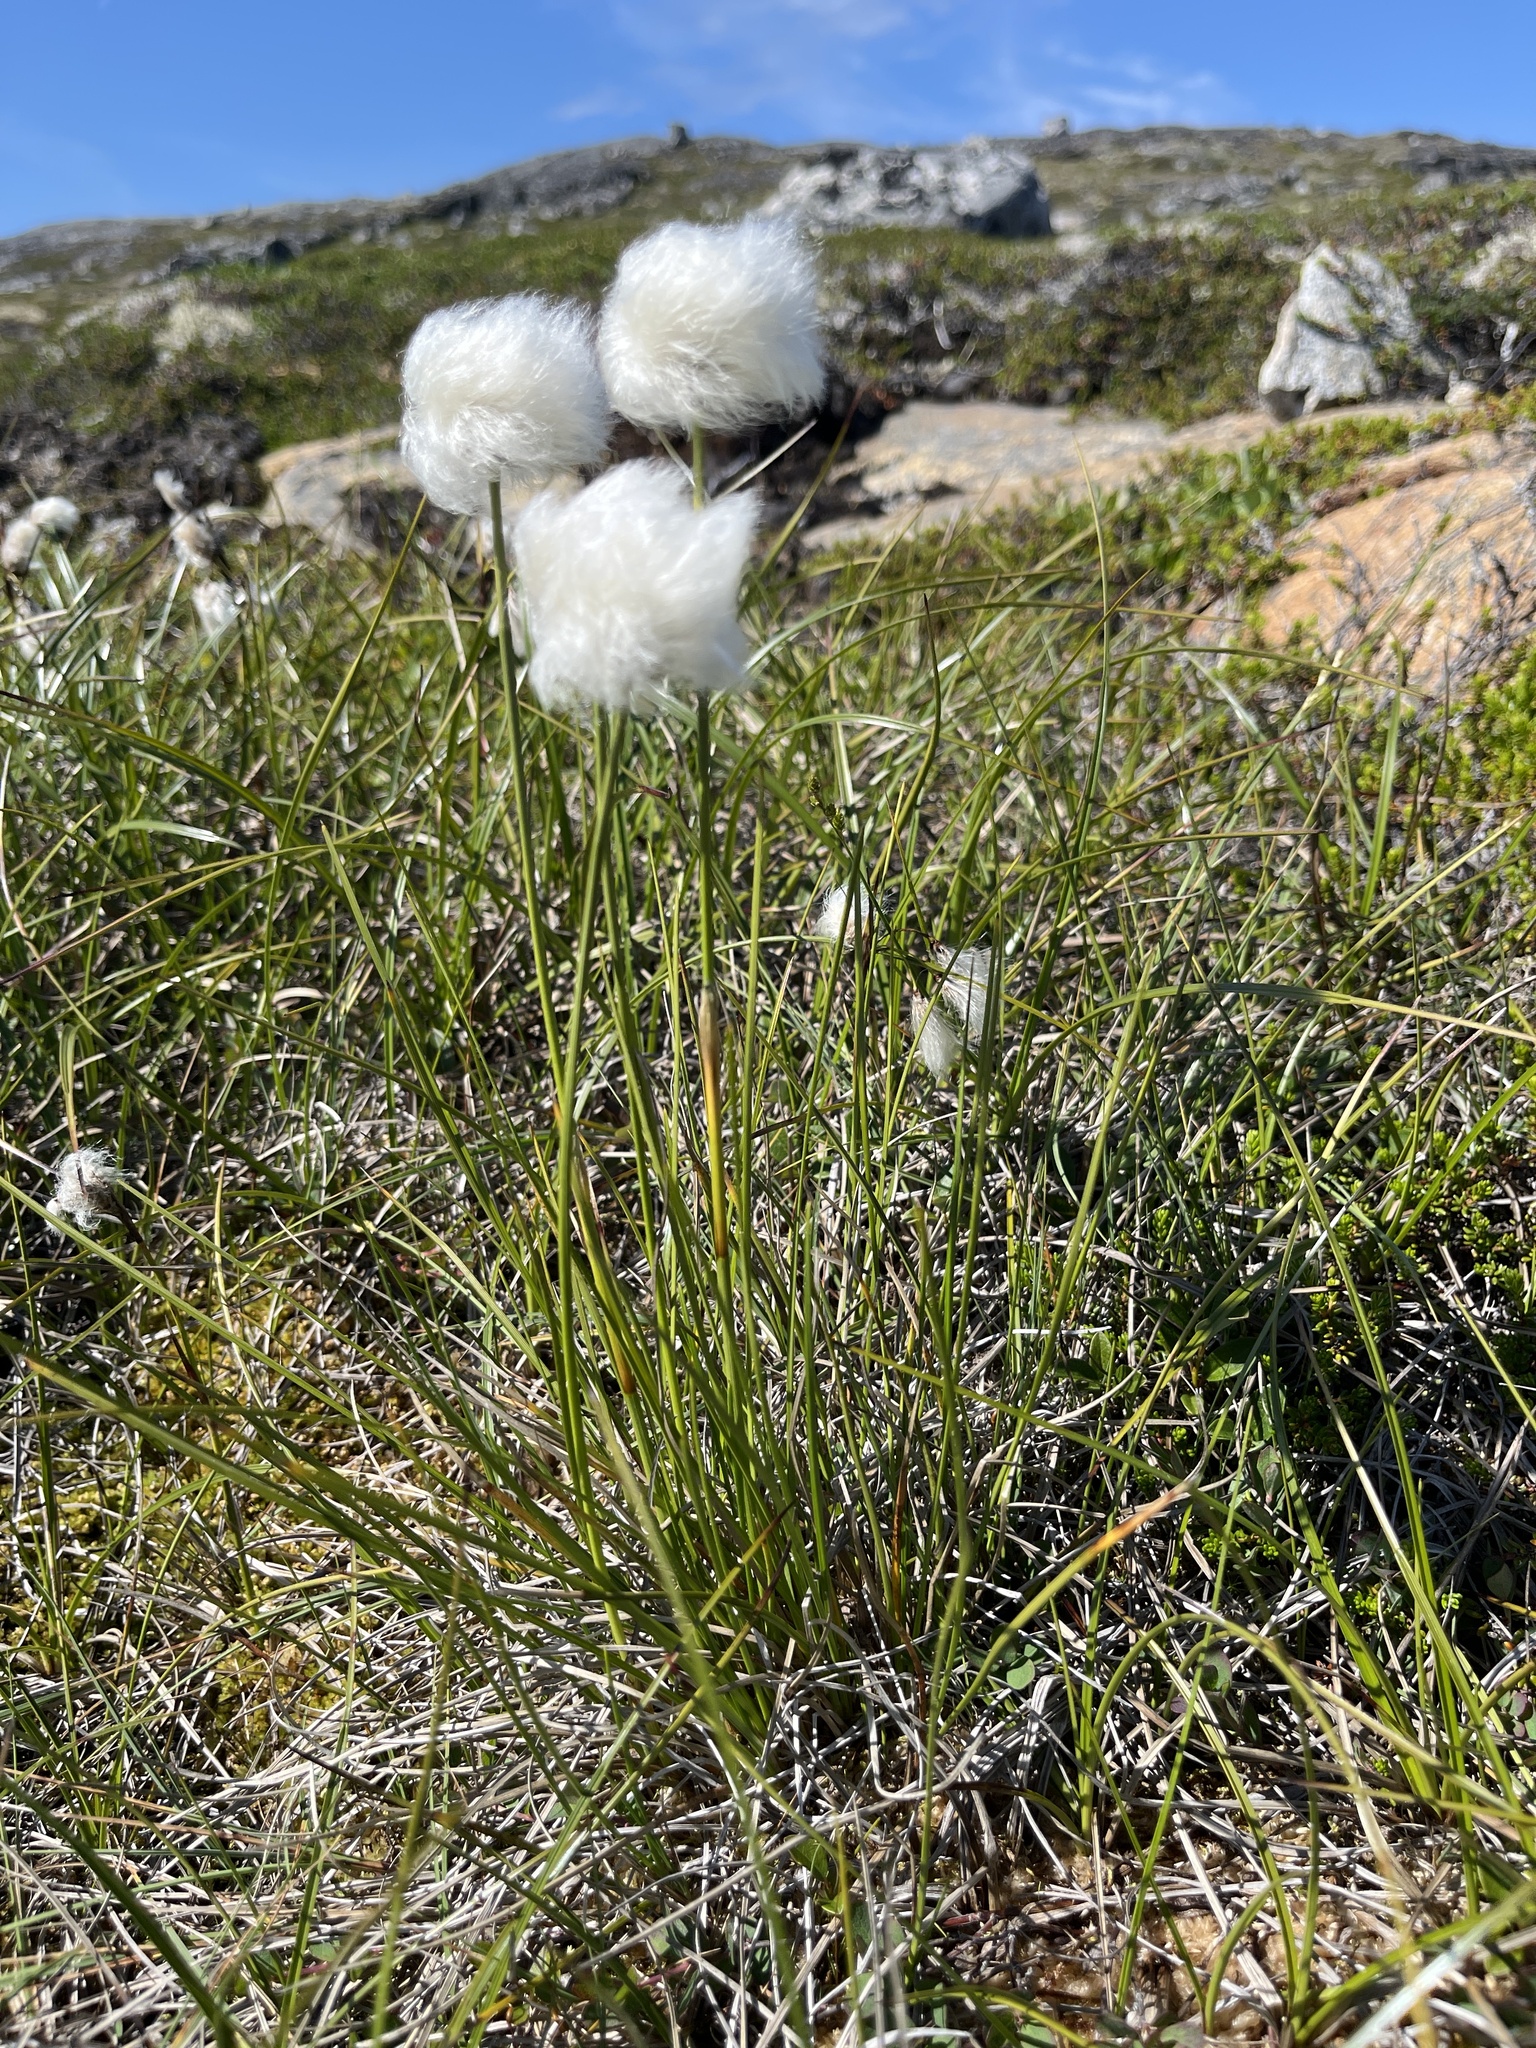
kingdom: Plantae
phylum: Tracheophyta
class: Liliopsida
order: Poales
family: Cyperaceae
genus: Eriophorum
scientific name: Eriophorum vaginatum
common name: Hare's-tail cottongrass
